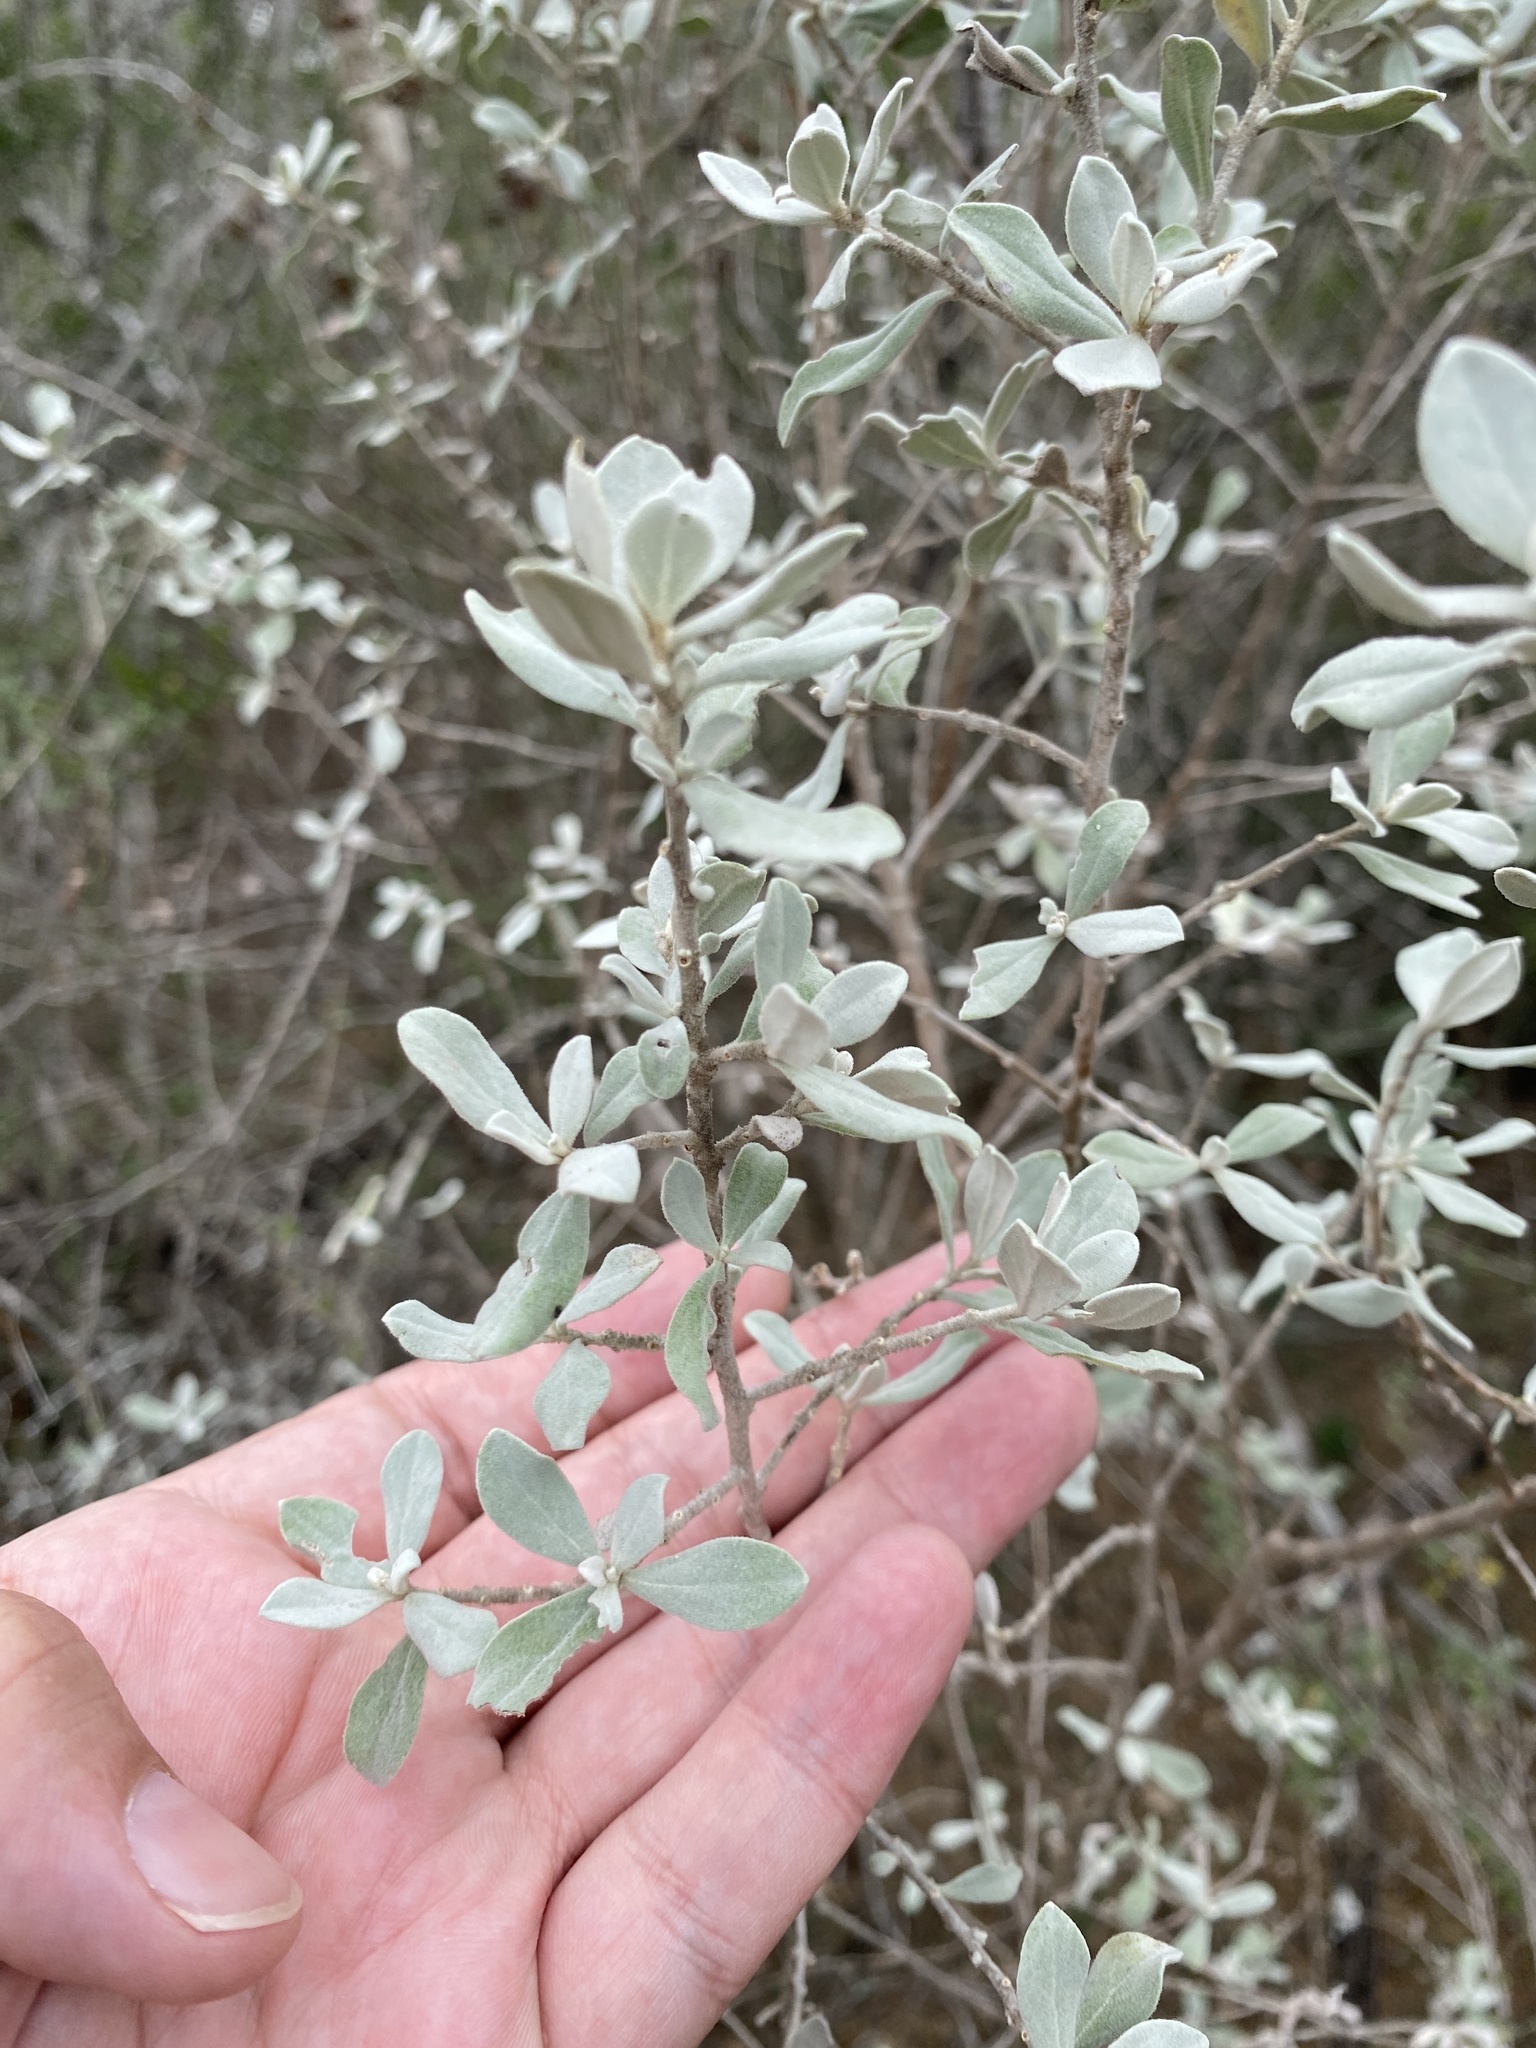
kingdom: Plantae
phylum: Tracheophyta
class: Magnoliopsida
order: Lamiales
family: Scrophulariaceae
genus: Leucophyllum
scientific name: Leucophyllum frutescens
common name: Texas silverleaf
